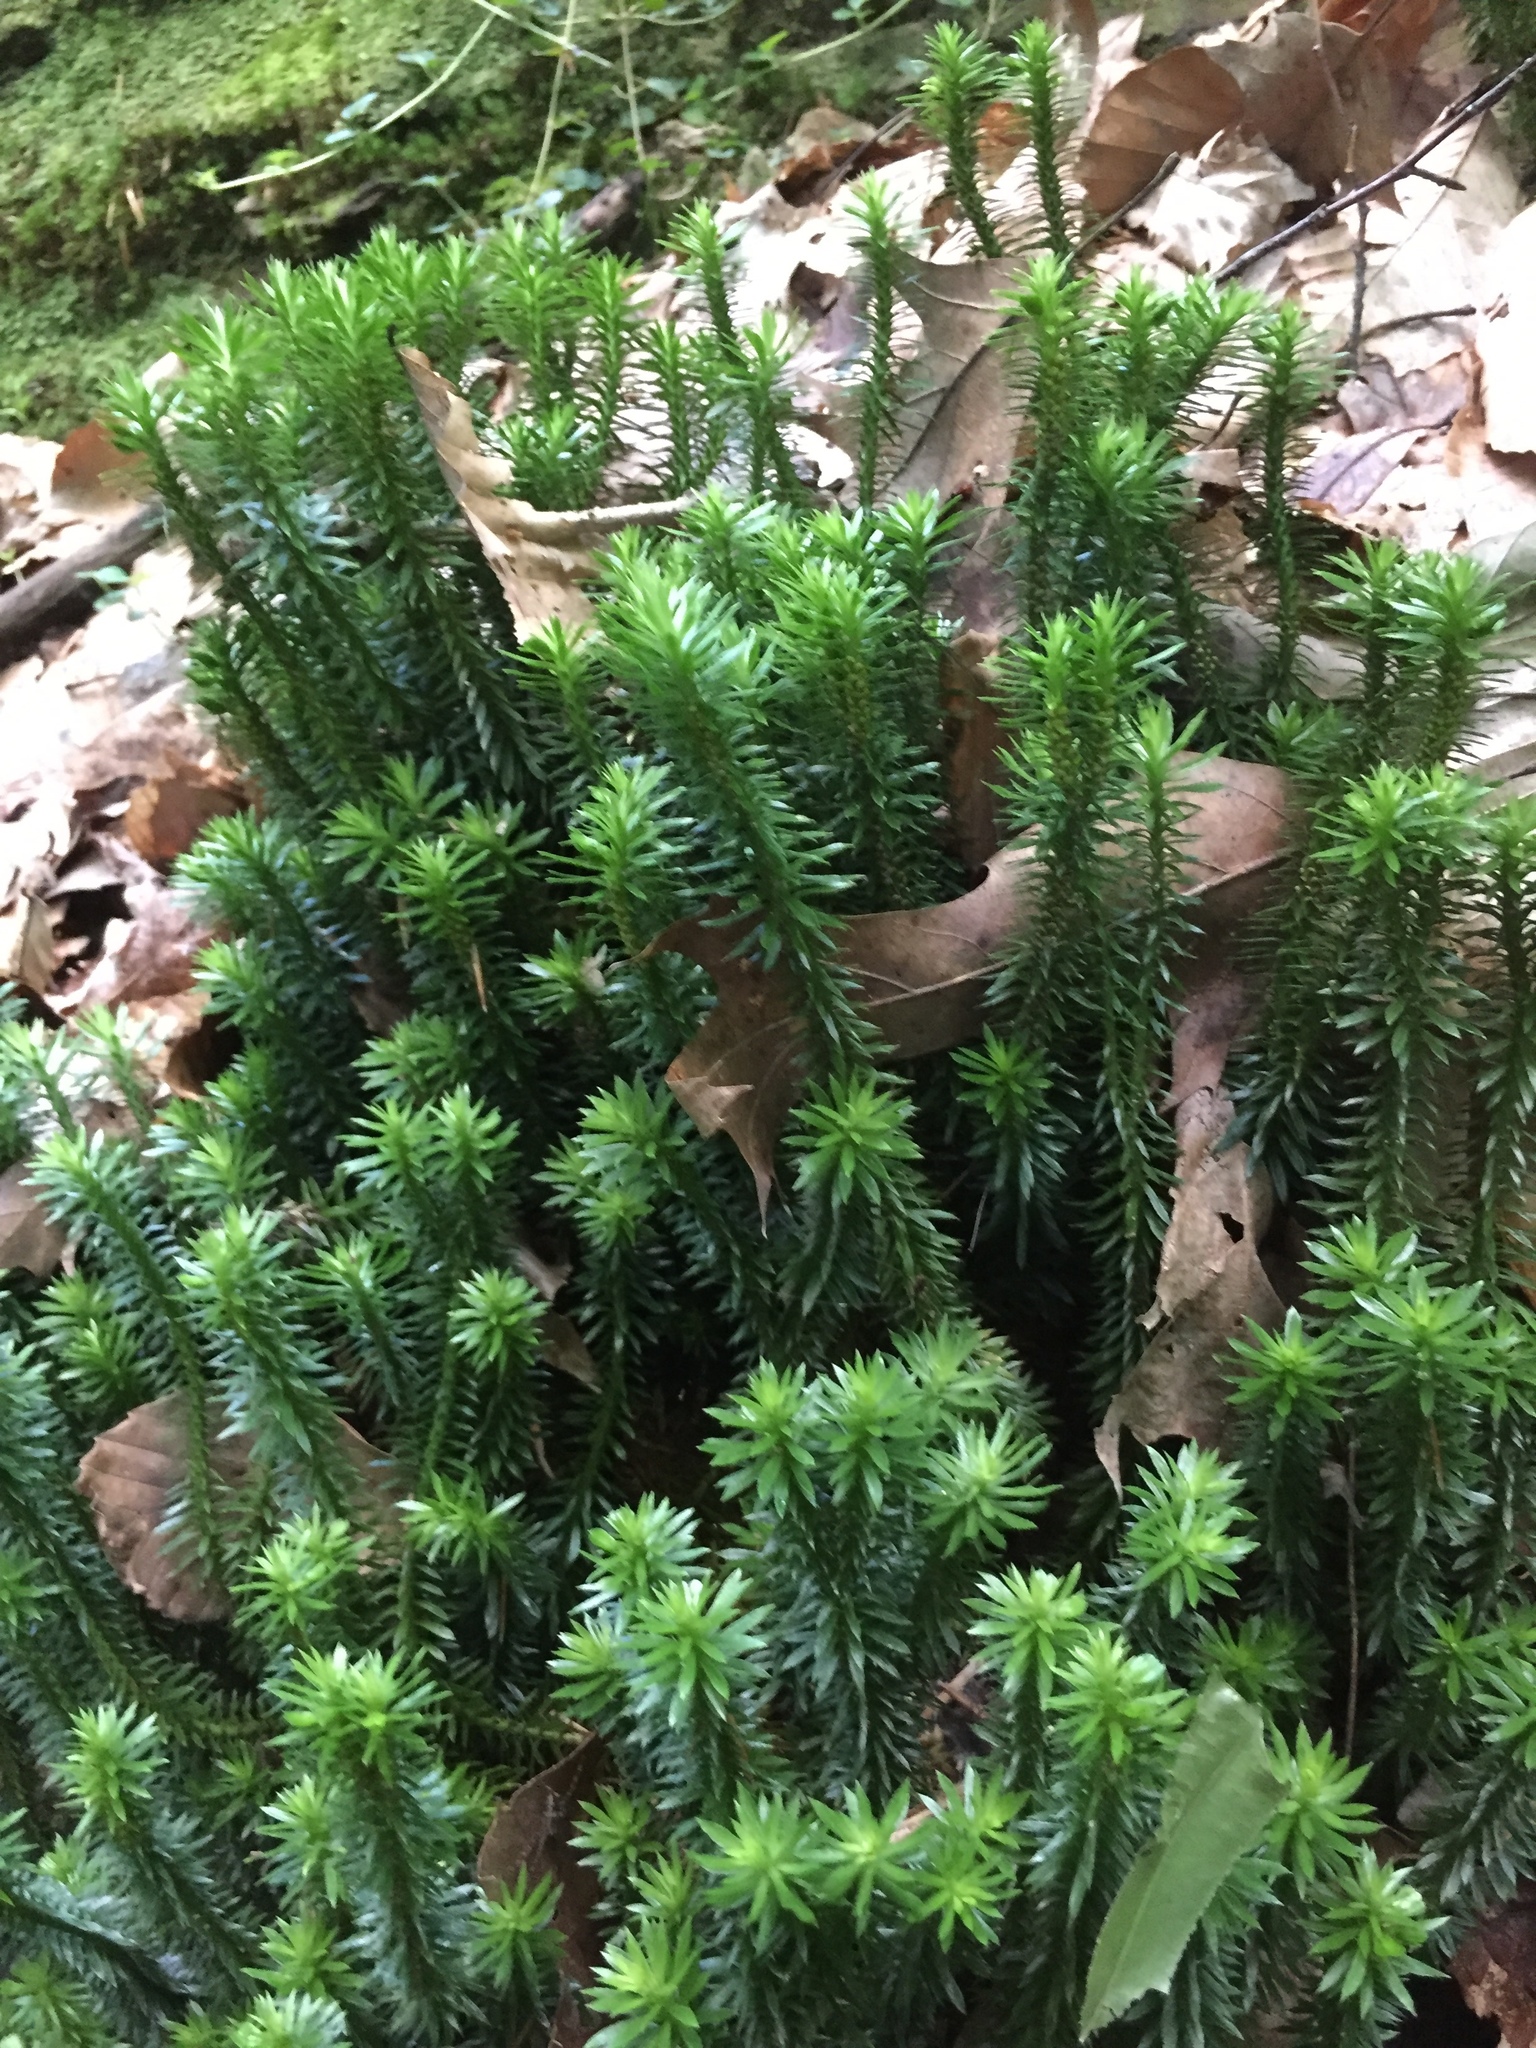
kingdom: Plantae
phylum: Tracheophyta
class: Lycopodiopsida
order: Lycopodiales
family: Lycopodiaceae
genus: Huperzia
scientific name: Huperzia lucidula
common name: Shining clubmoss
